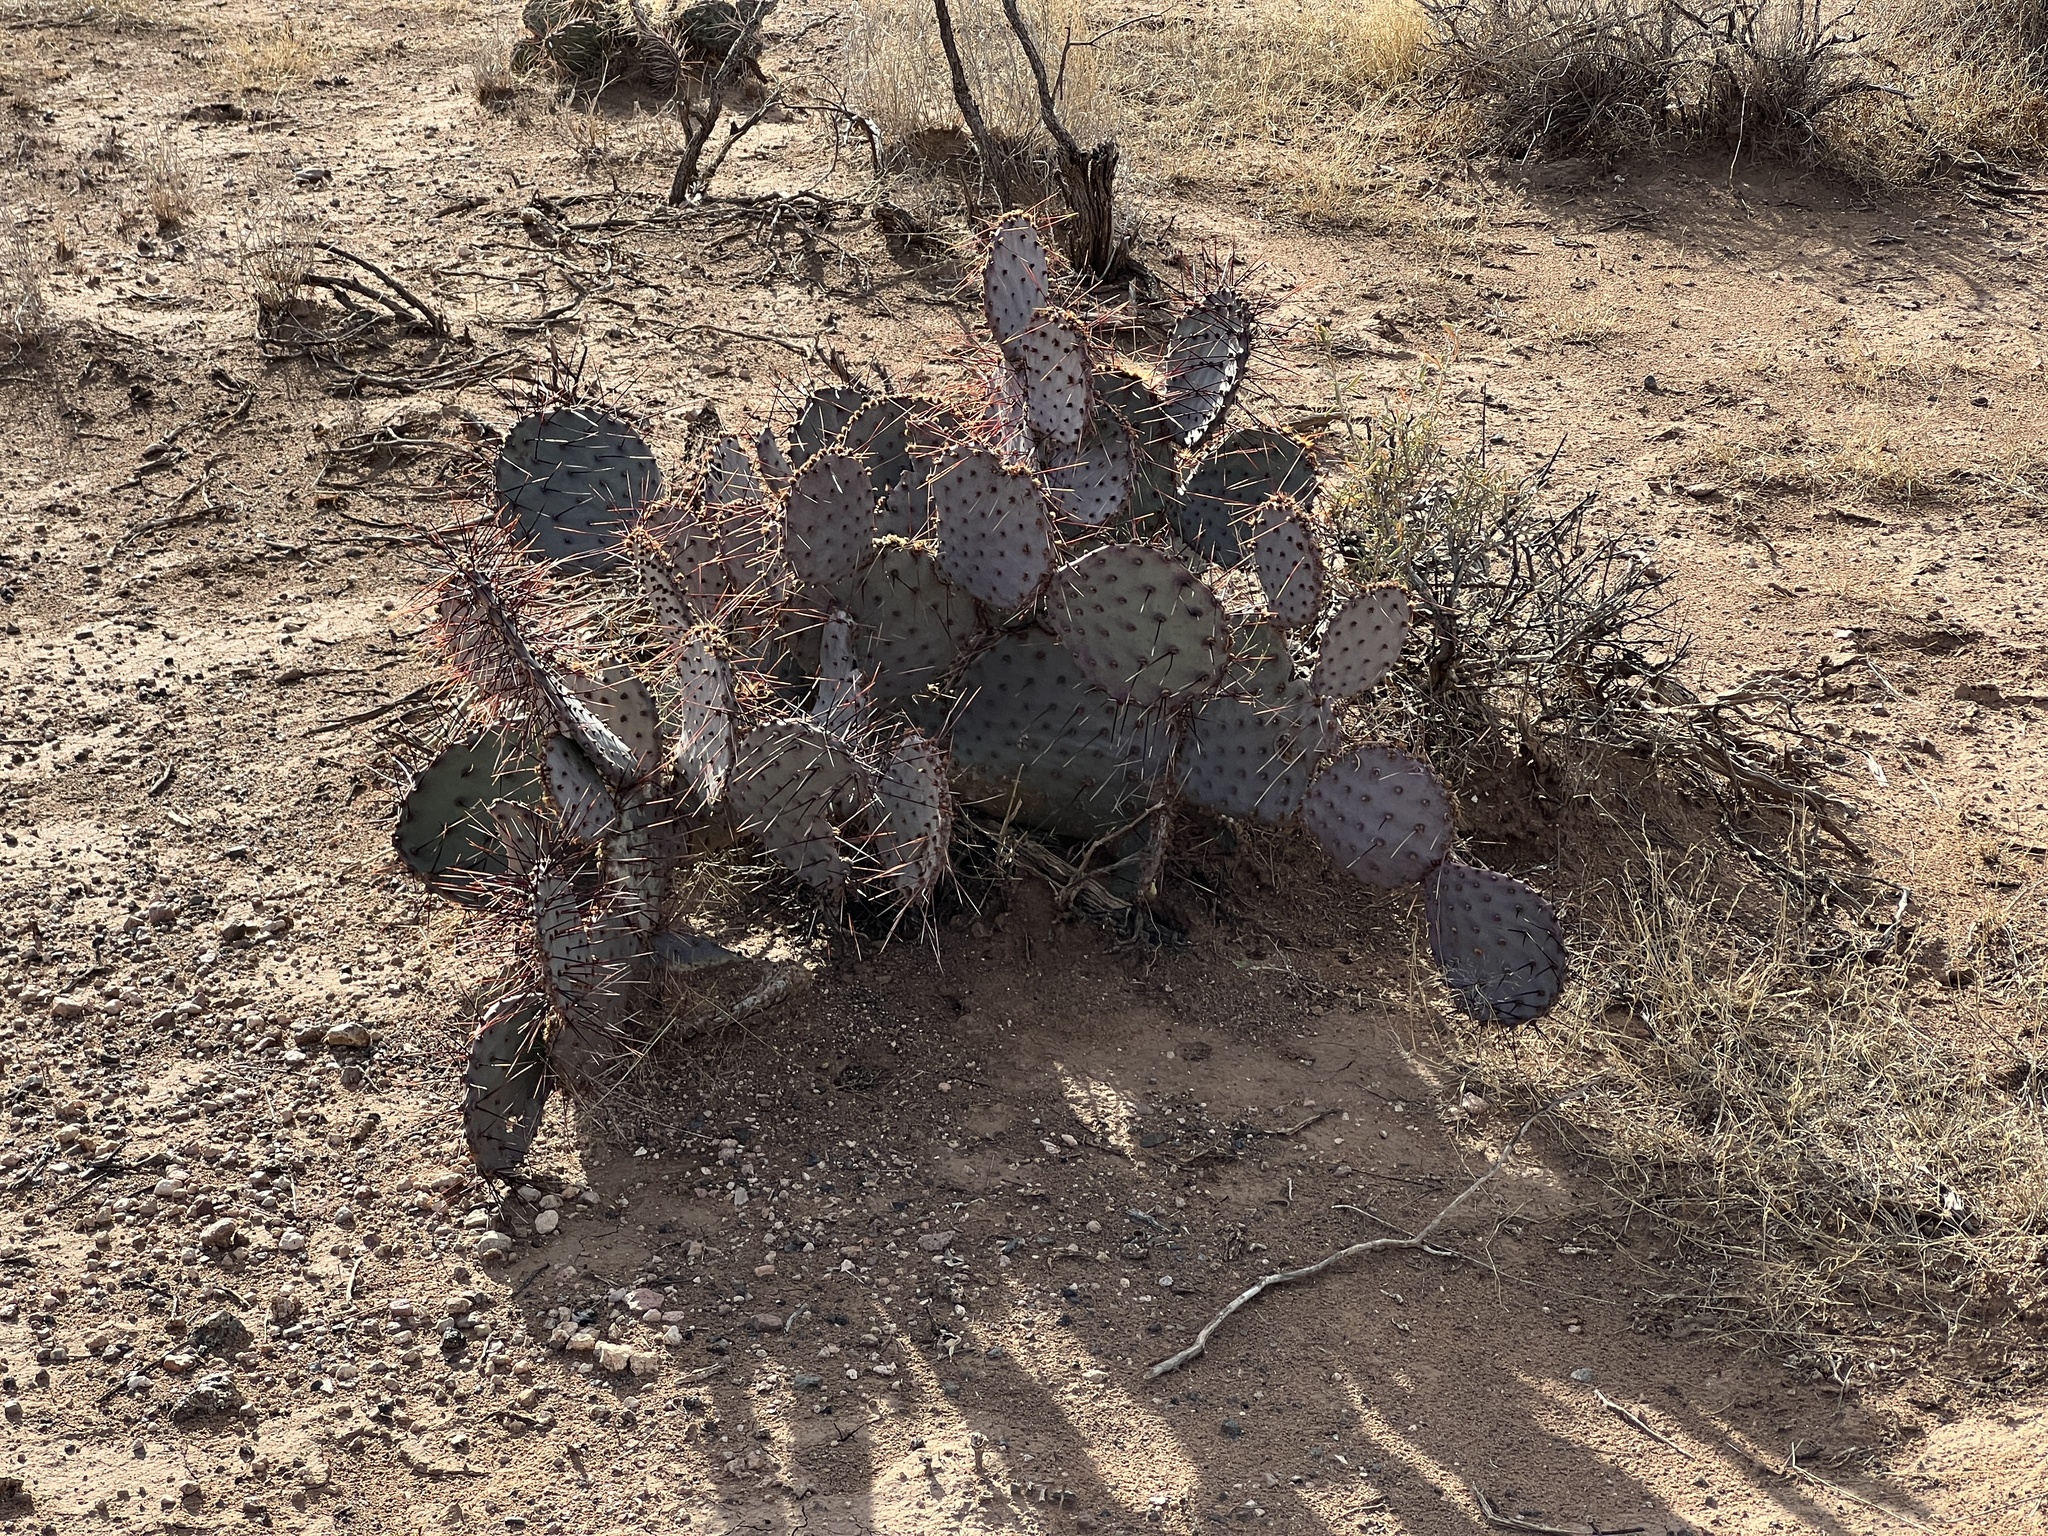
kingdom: Plantae
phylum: Tracheophyta
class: Magnoliopsida
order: Caryophyllales
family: Cactaceae
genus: Opuntia
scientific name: Opuntia macrocentra
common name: Purple prickly-pear
